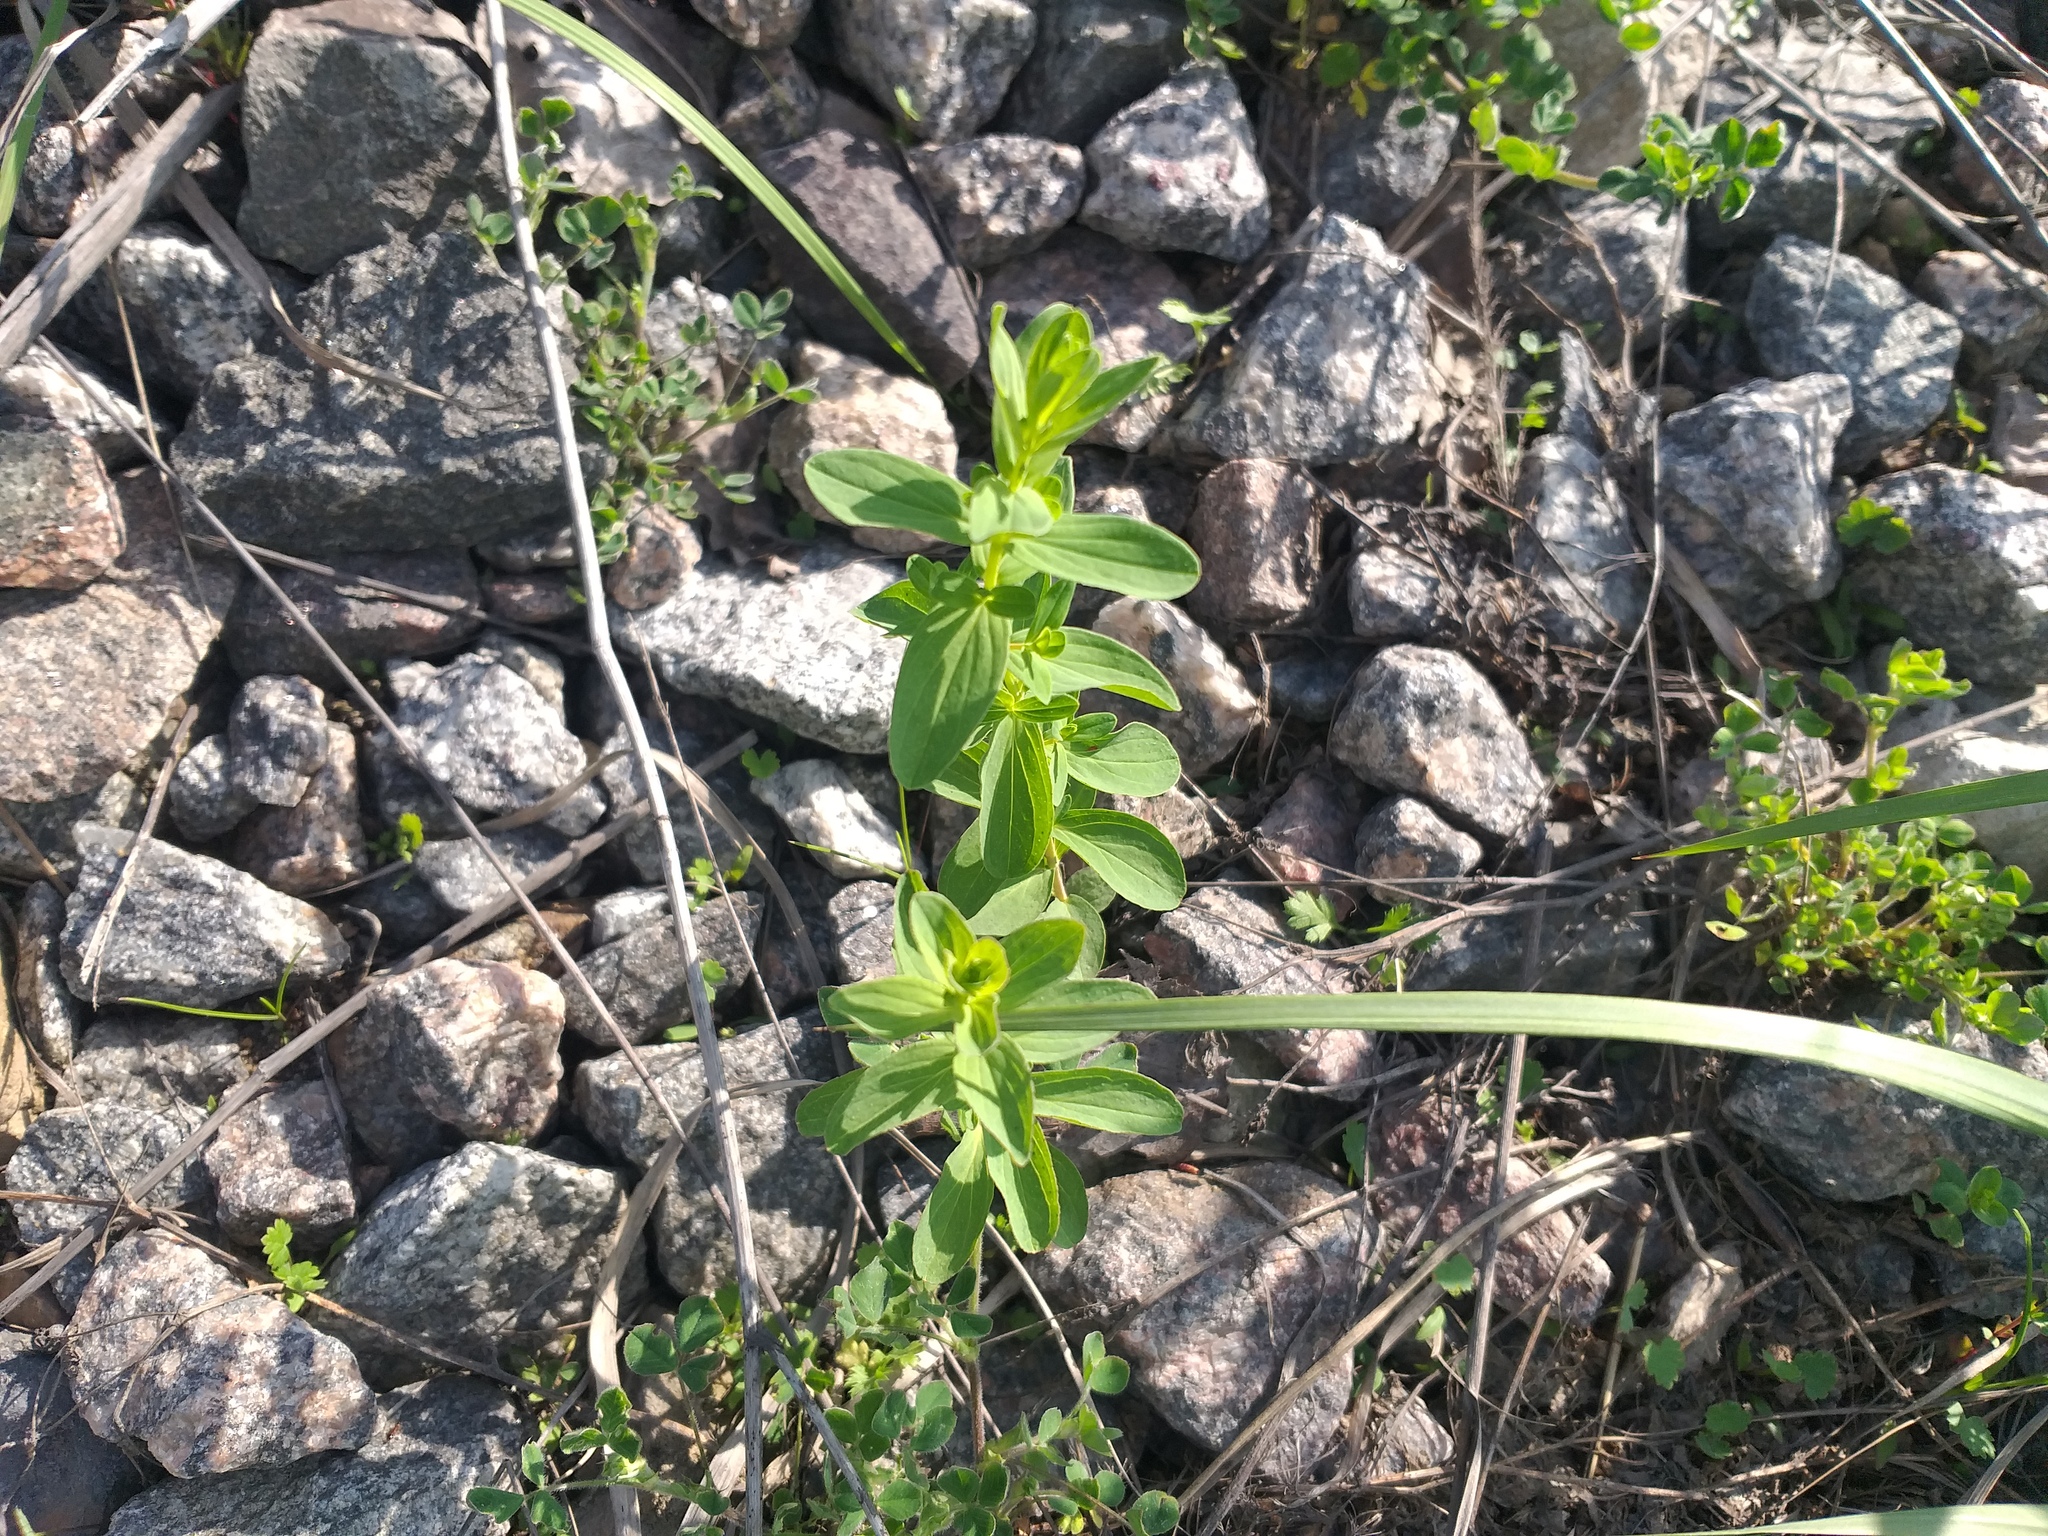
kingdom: Plantae
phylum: Tracheophyta
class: Magnoliopsida
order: Malpighiales
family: Hypericaceae
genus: Hypericum
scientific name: Hypericum perforatum
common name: Common st. johnswort
